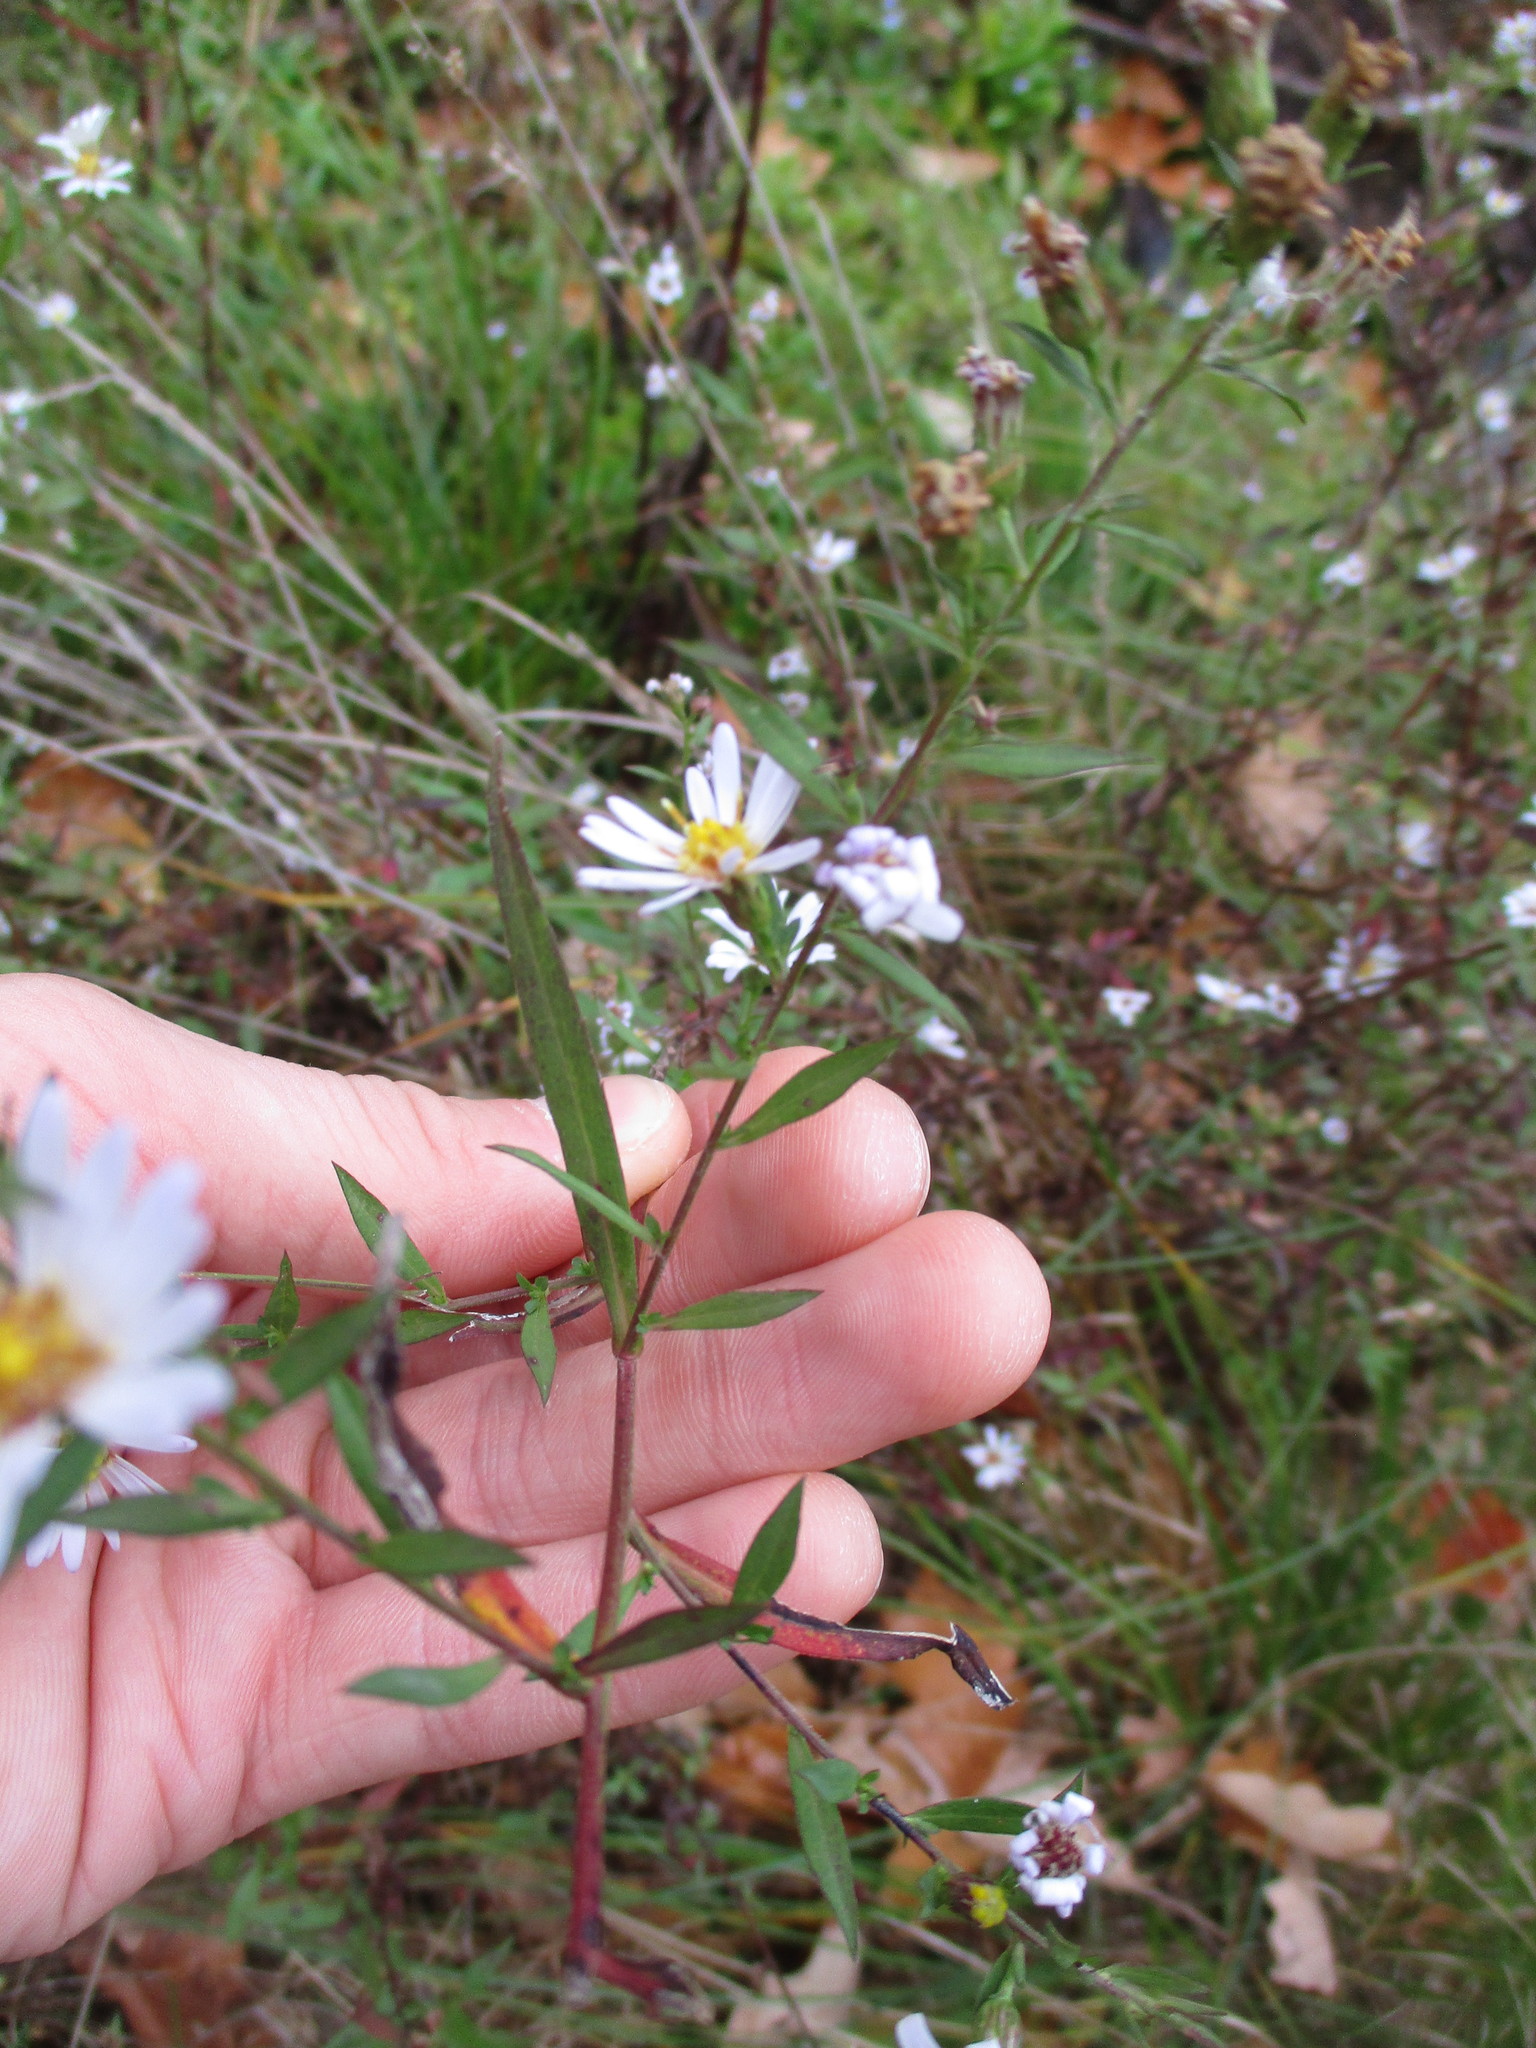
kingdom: Plantae
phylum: Tracheophyta
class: Magnoliopsida
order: Asterales
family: Asteraceae
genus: Symphyotrichum
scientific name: Symphyotrichum racemosum
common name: Small white aster
